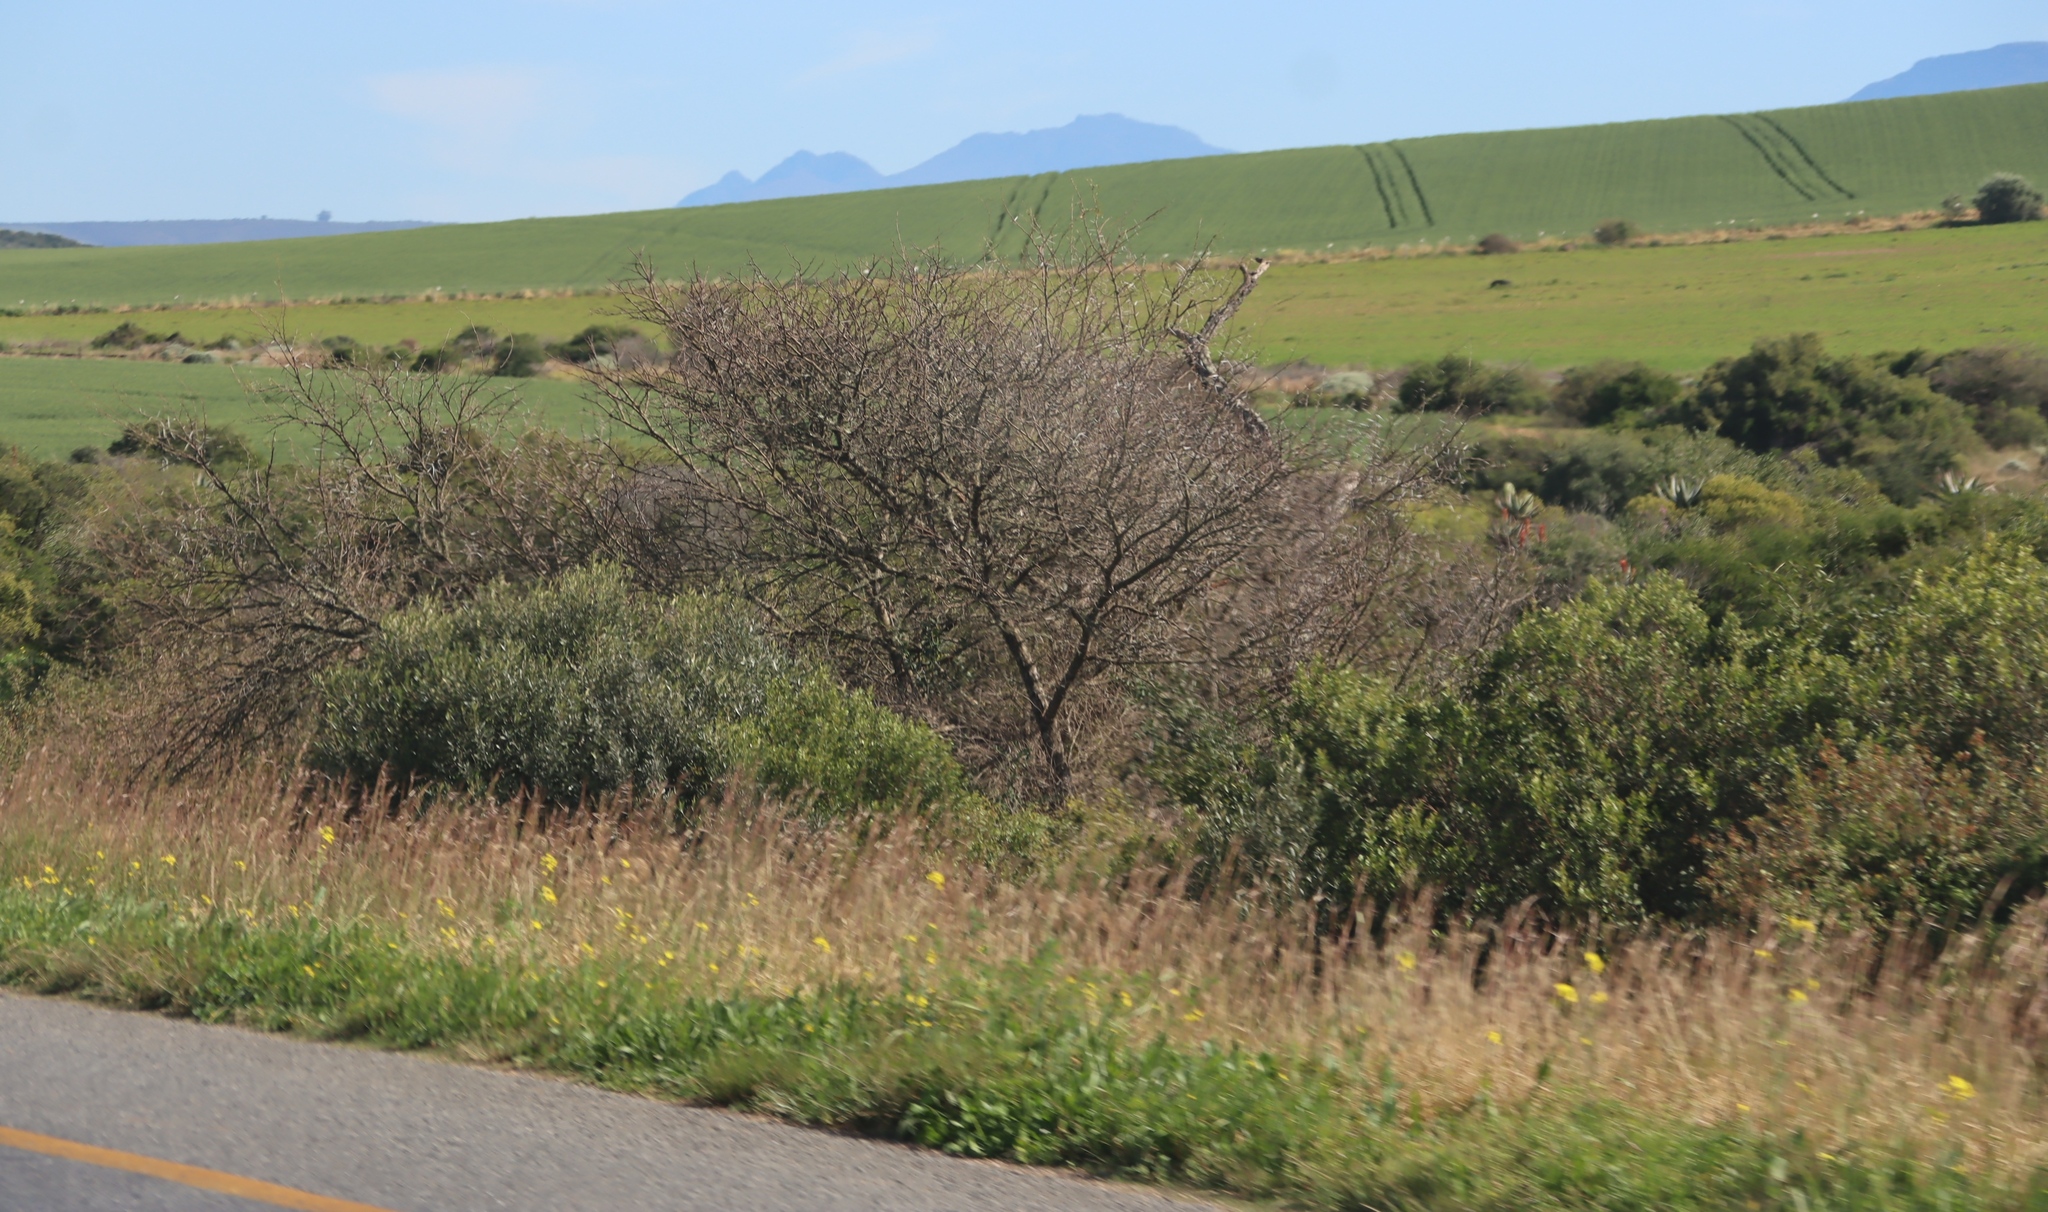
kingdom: Plantae
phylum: Tracheophyta
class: Magnoliopsida
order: Fabales
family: Fabaceae
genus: Vachellia
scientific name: Vachellia karroo
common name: Sweet thorn
